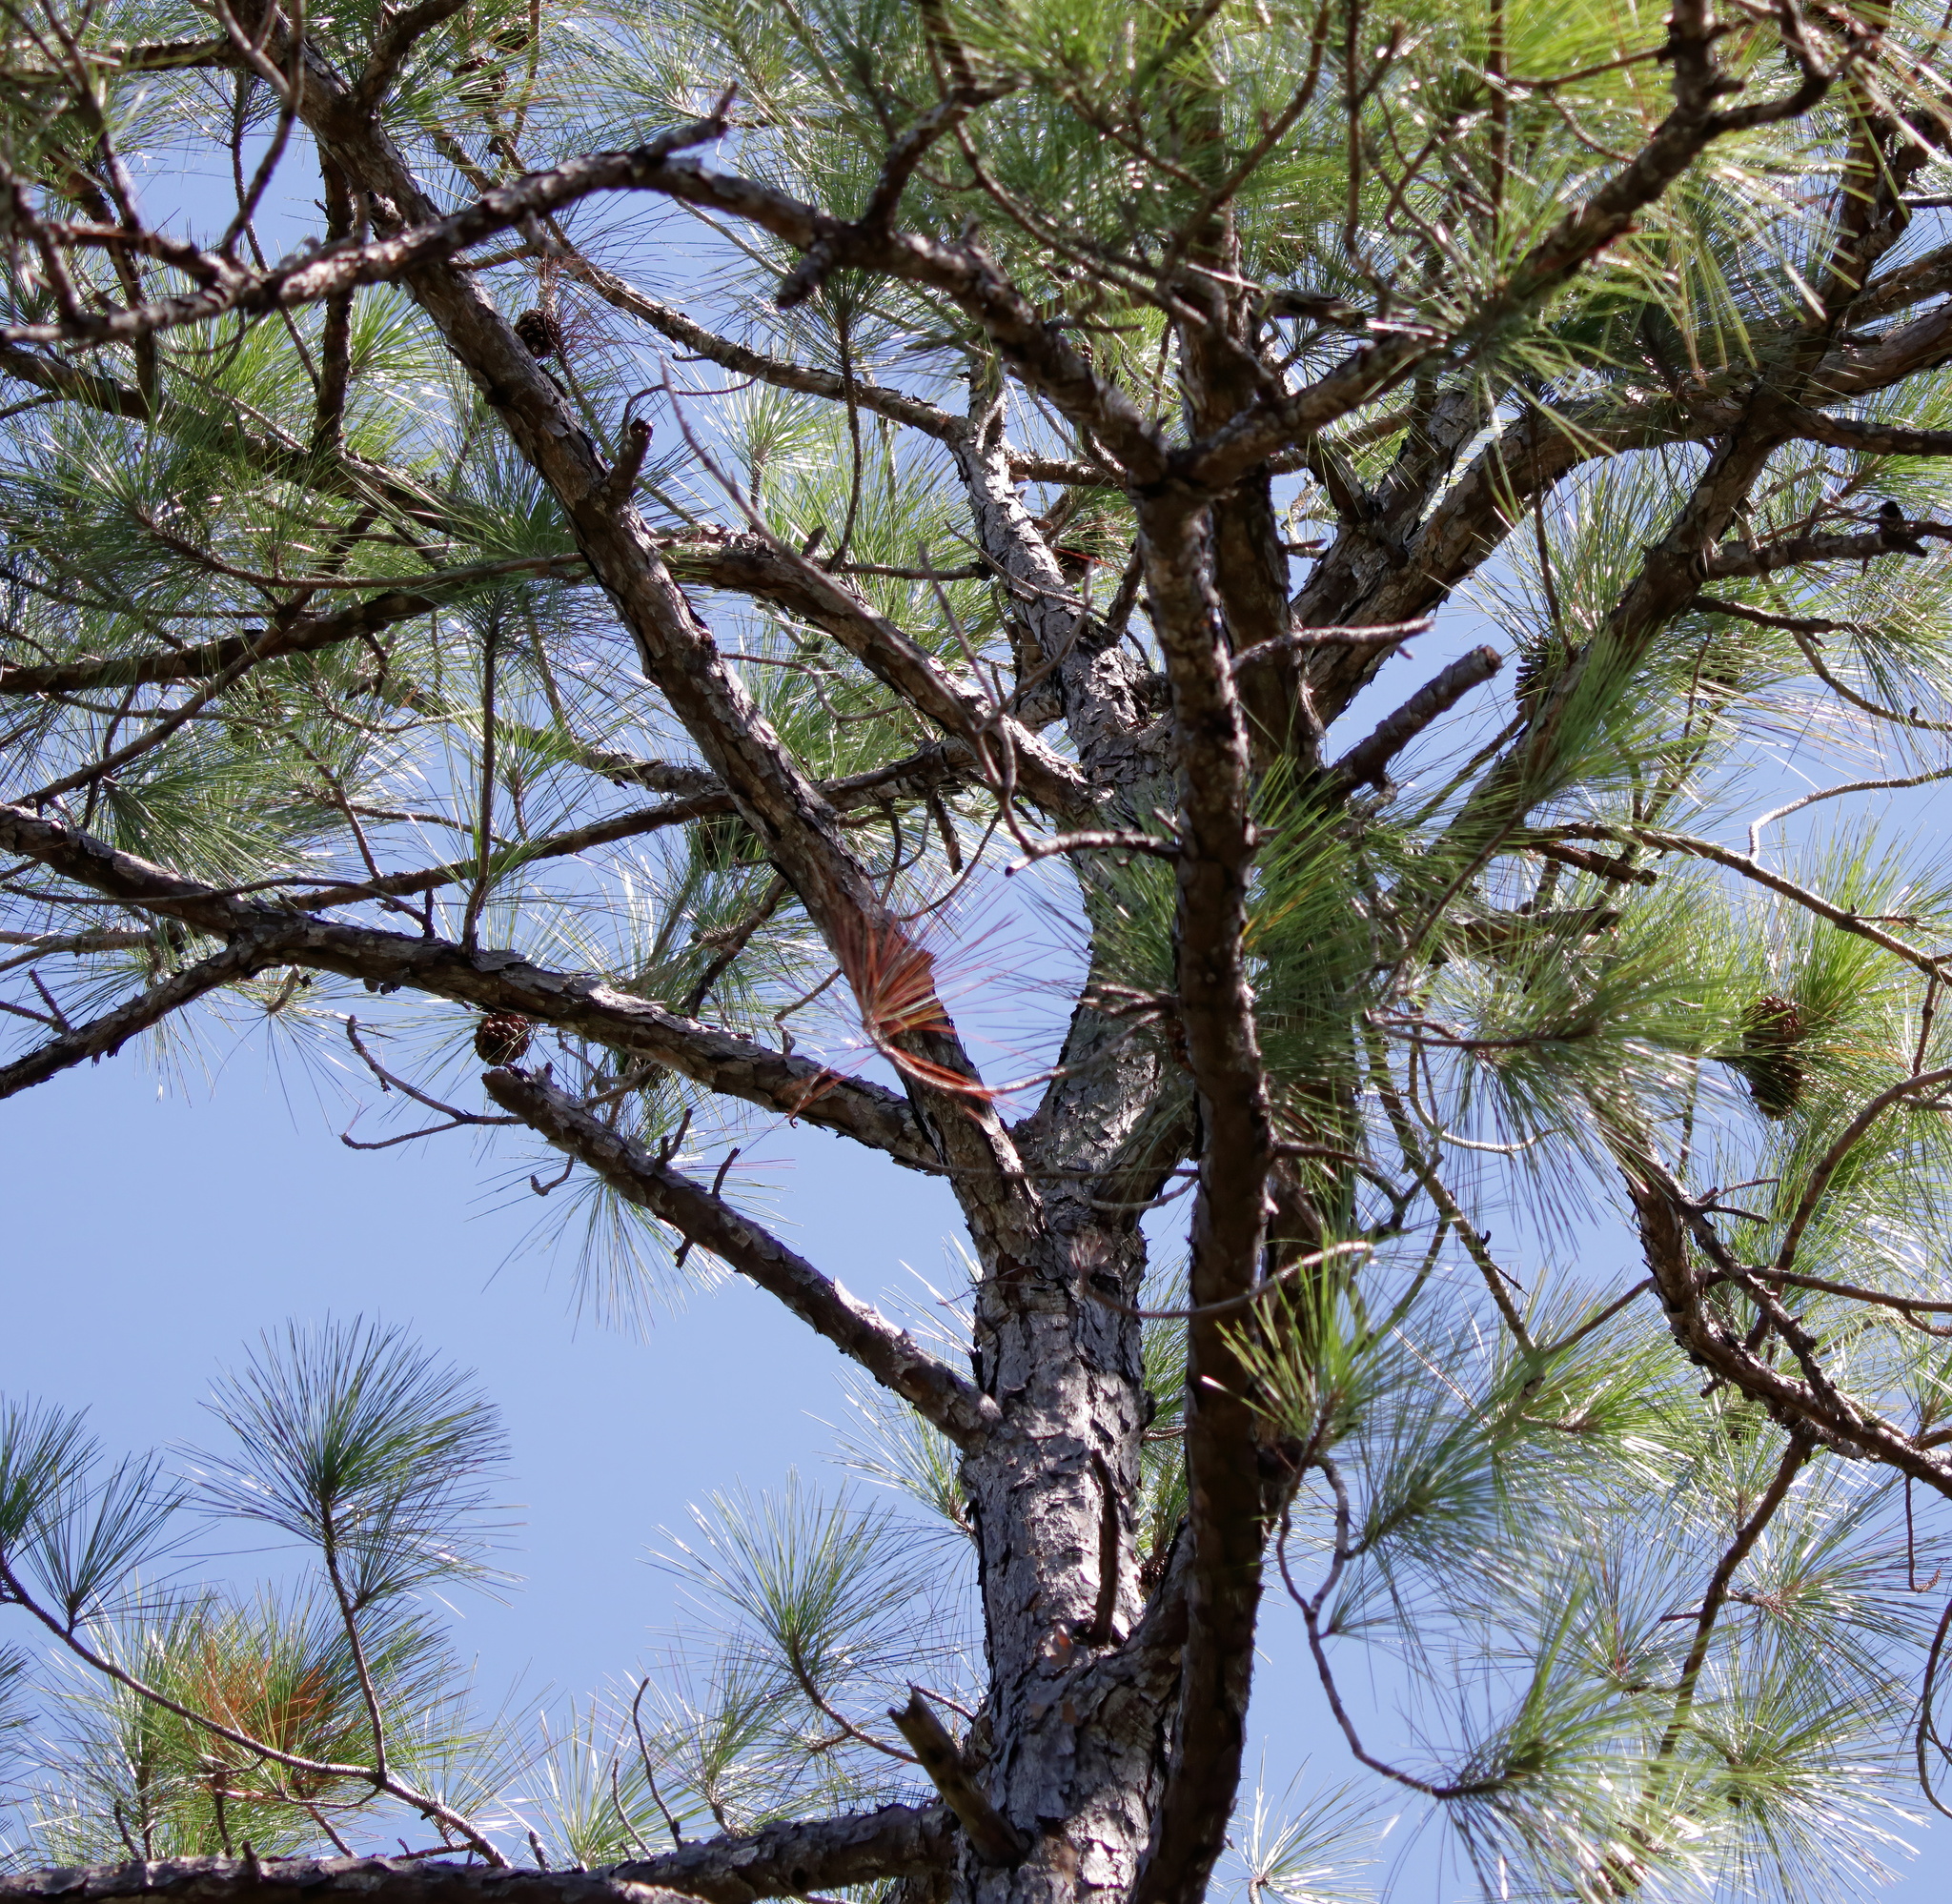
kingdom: Plantae
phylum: Tracheophyta
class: Pinopsida
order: Pinales
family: Pinaceae
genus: Pinus
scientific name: Pinus elliottii
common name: Slash pine
